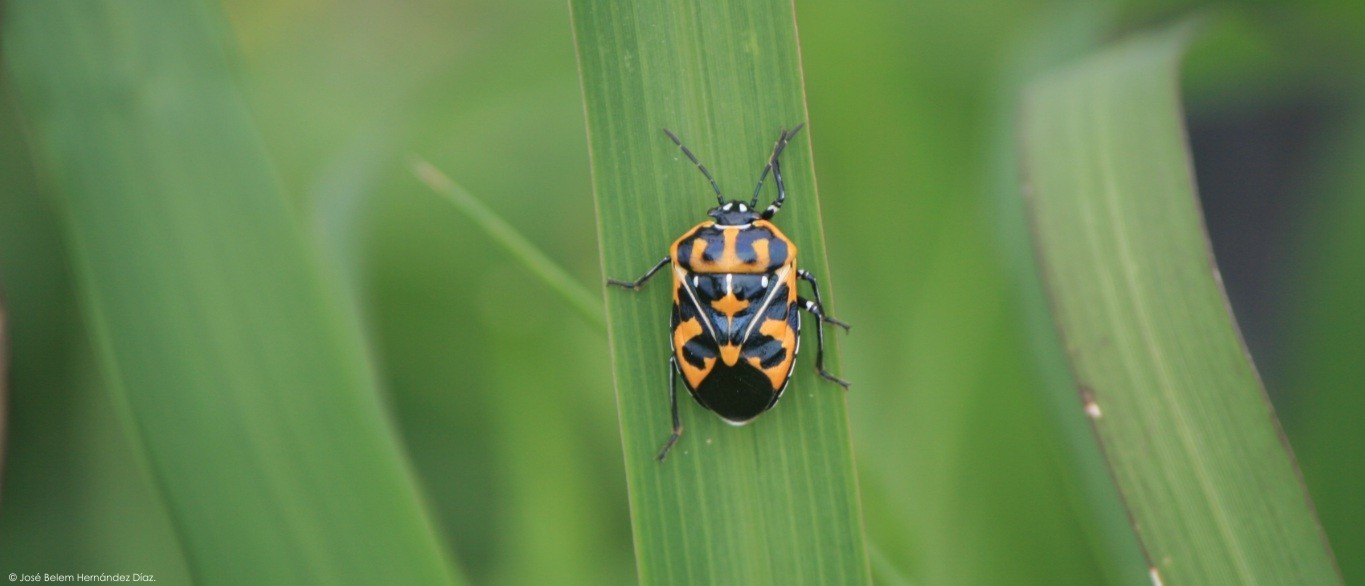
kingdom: Animalia
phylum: Arthropoda
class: Insecta
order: Hemiptera
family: Pentatomidae
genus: Murgantia
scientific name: Murgantia histrionica
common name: Harlequin bug
